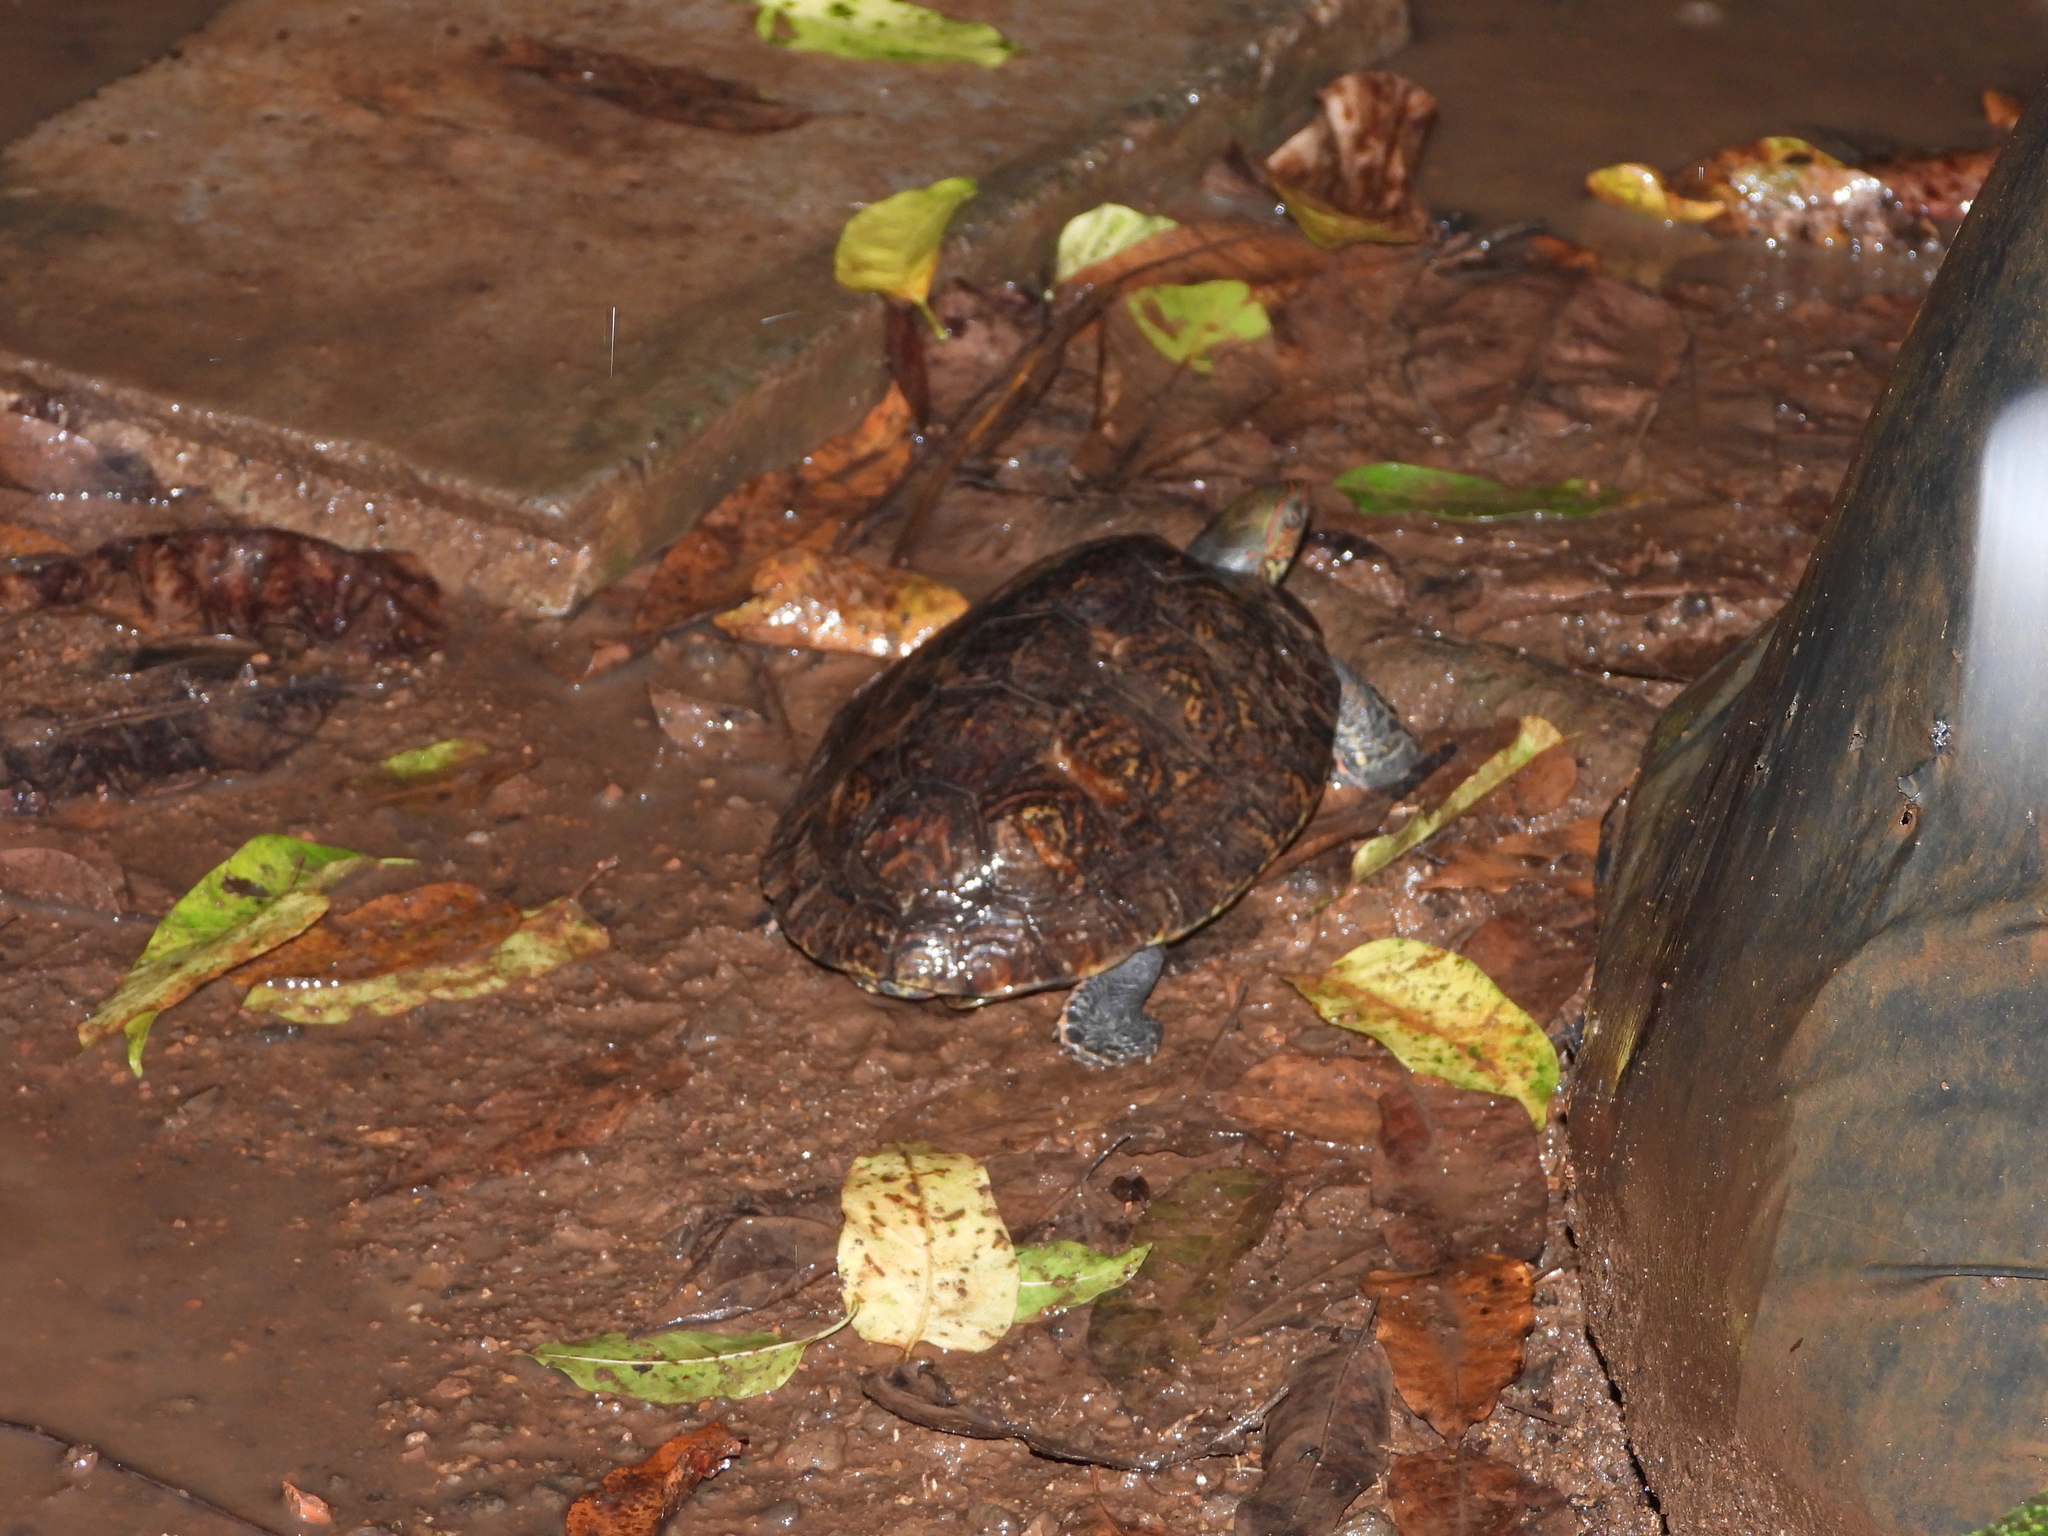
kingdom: Animalia
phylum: Chordata
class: Testudines
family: Geoemydidae
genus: Rhinoclemmys
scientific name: Rhinoclemmys pulcherrima
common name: Painted wood turtle
